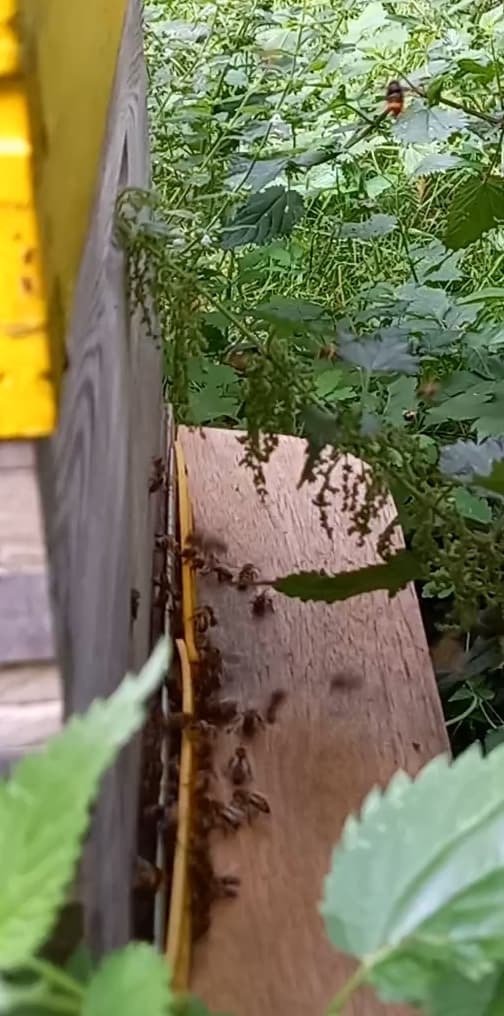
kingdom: Animalia
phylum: Arthropoda
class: Insecta
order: Hymenoptera
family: Vespidae
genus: Vespa
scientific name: Vespa velutina
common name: Asian hornet
